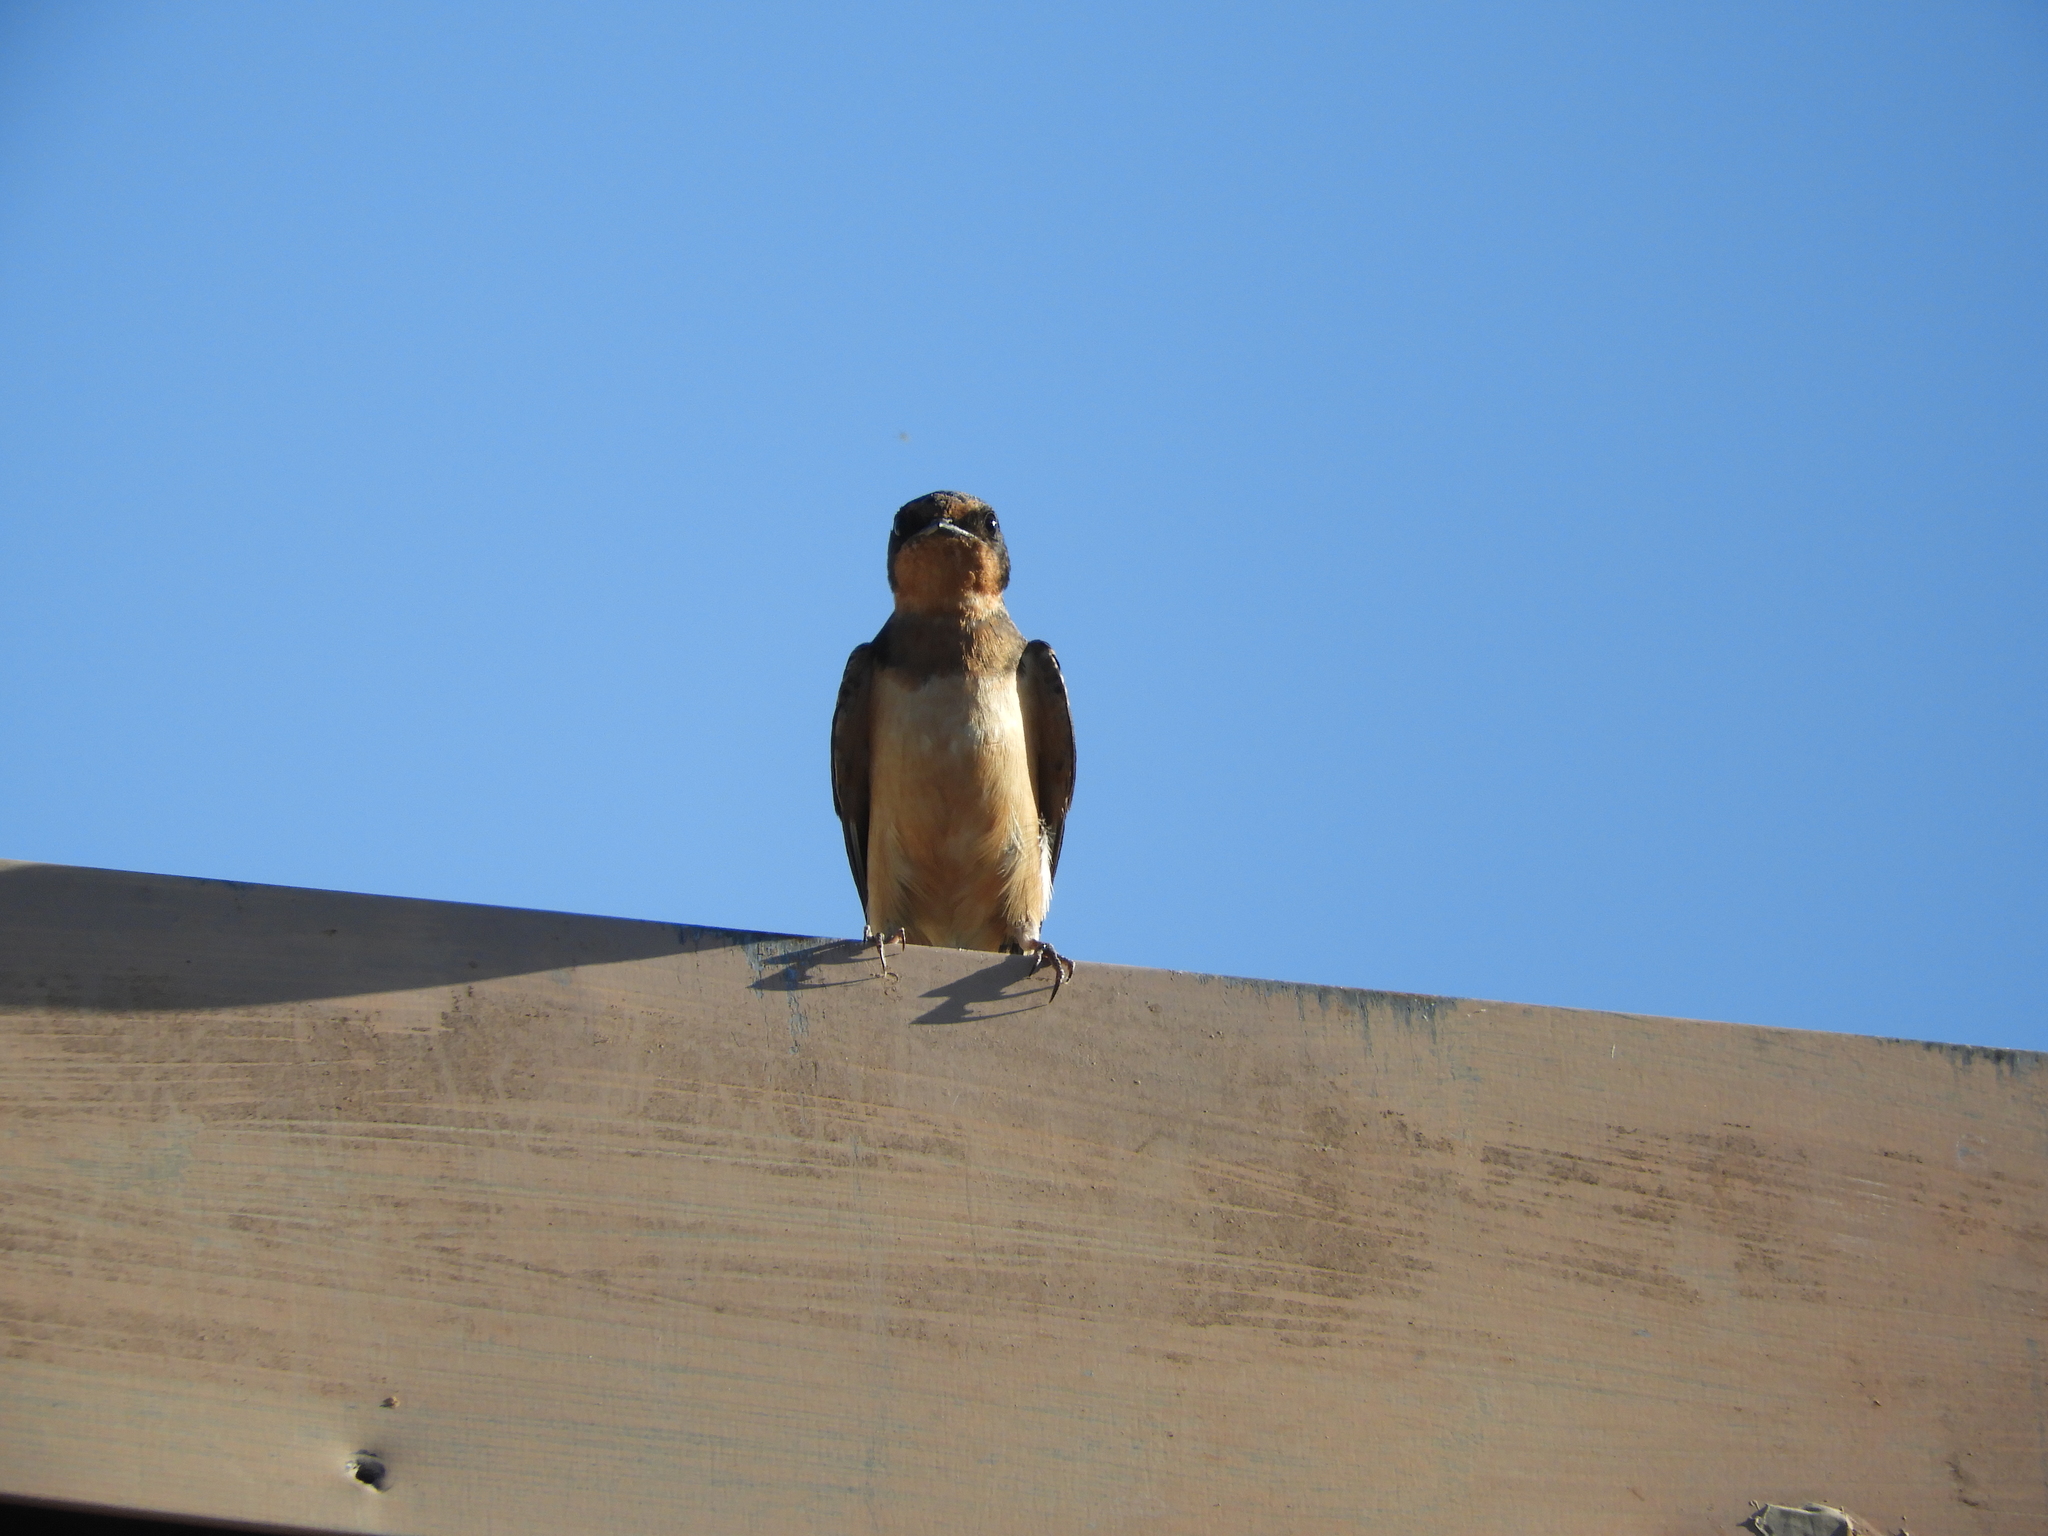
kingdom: Animalia
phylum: Chordata
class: Aves
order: Passeriformes
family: Hirundinidae
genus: Hirundo
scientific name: Hirundo rustica
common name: Barn swallow
